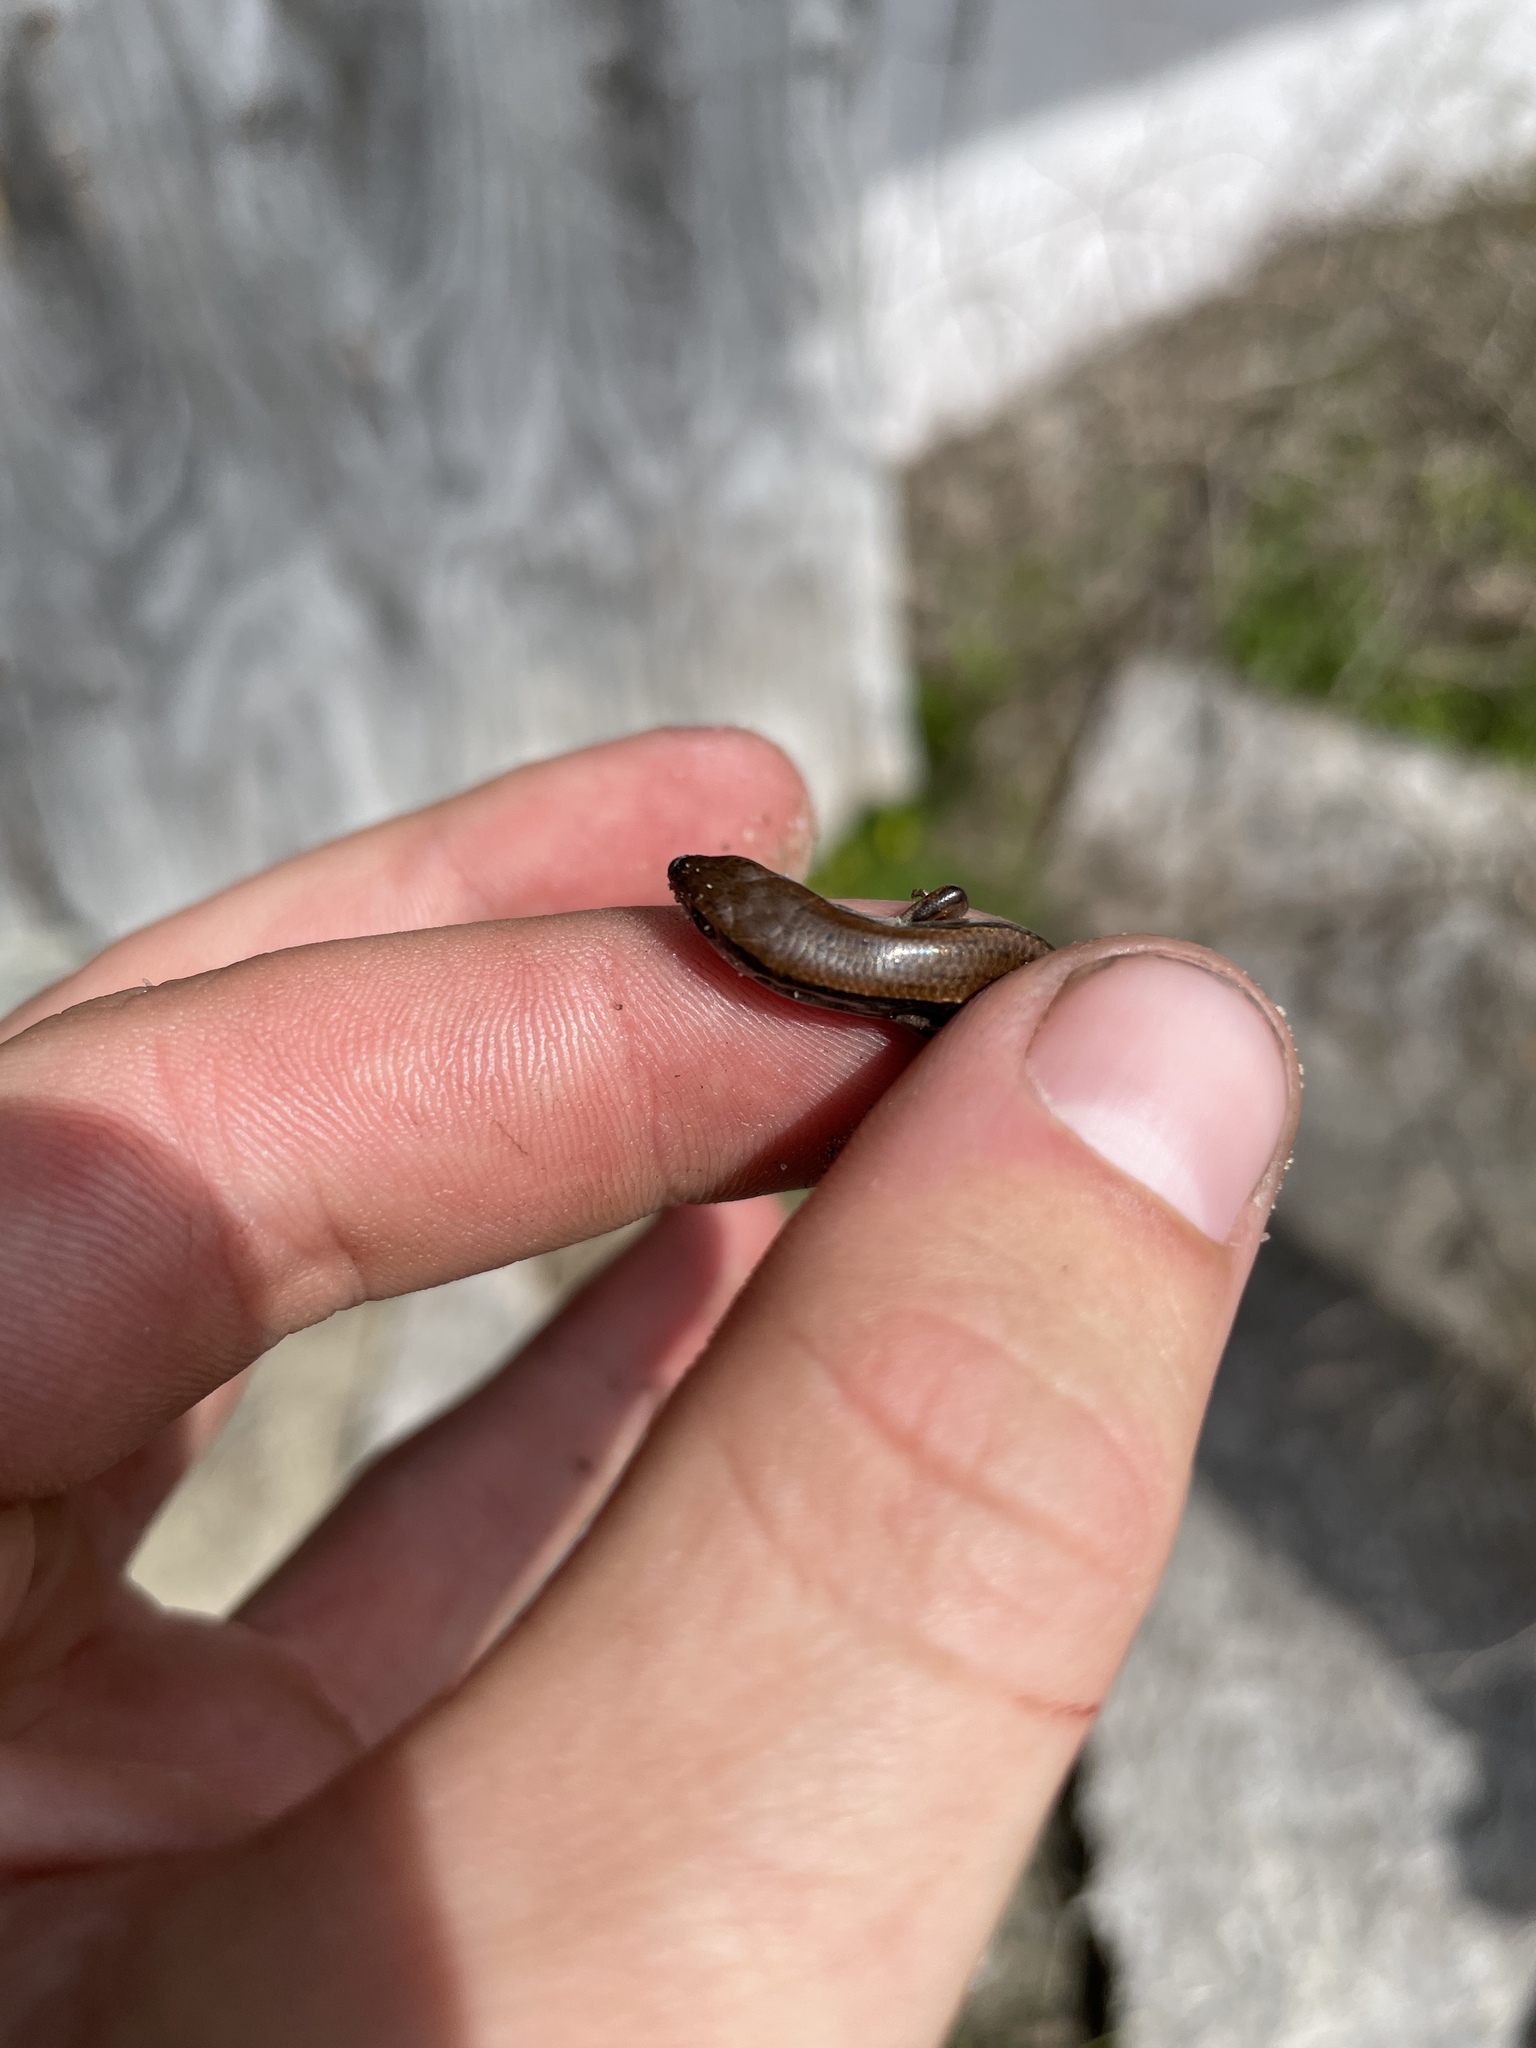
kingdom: Animalia
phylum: Chordata
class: Squamata
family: Scincidae
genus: Scincella
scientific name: Scincella lateralis
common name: Ground skink
